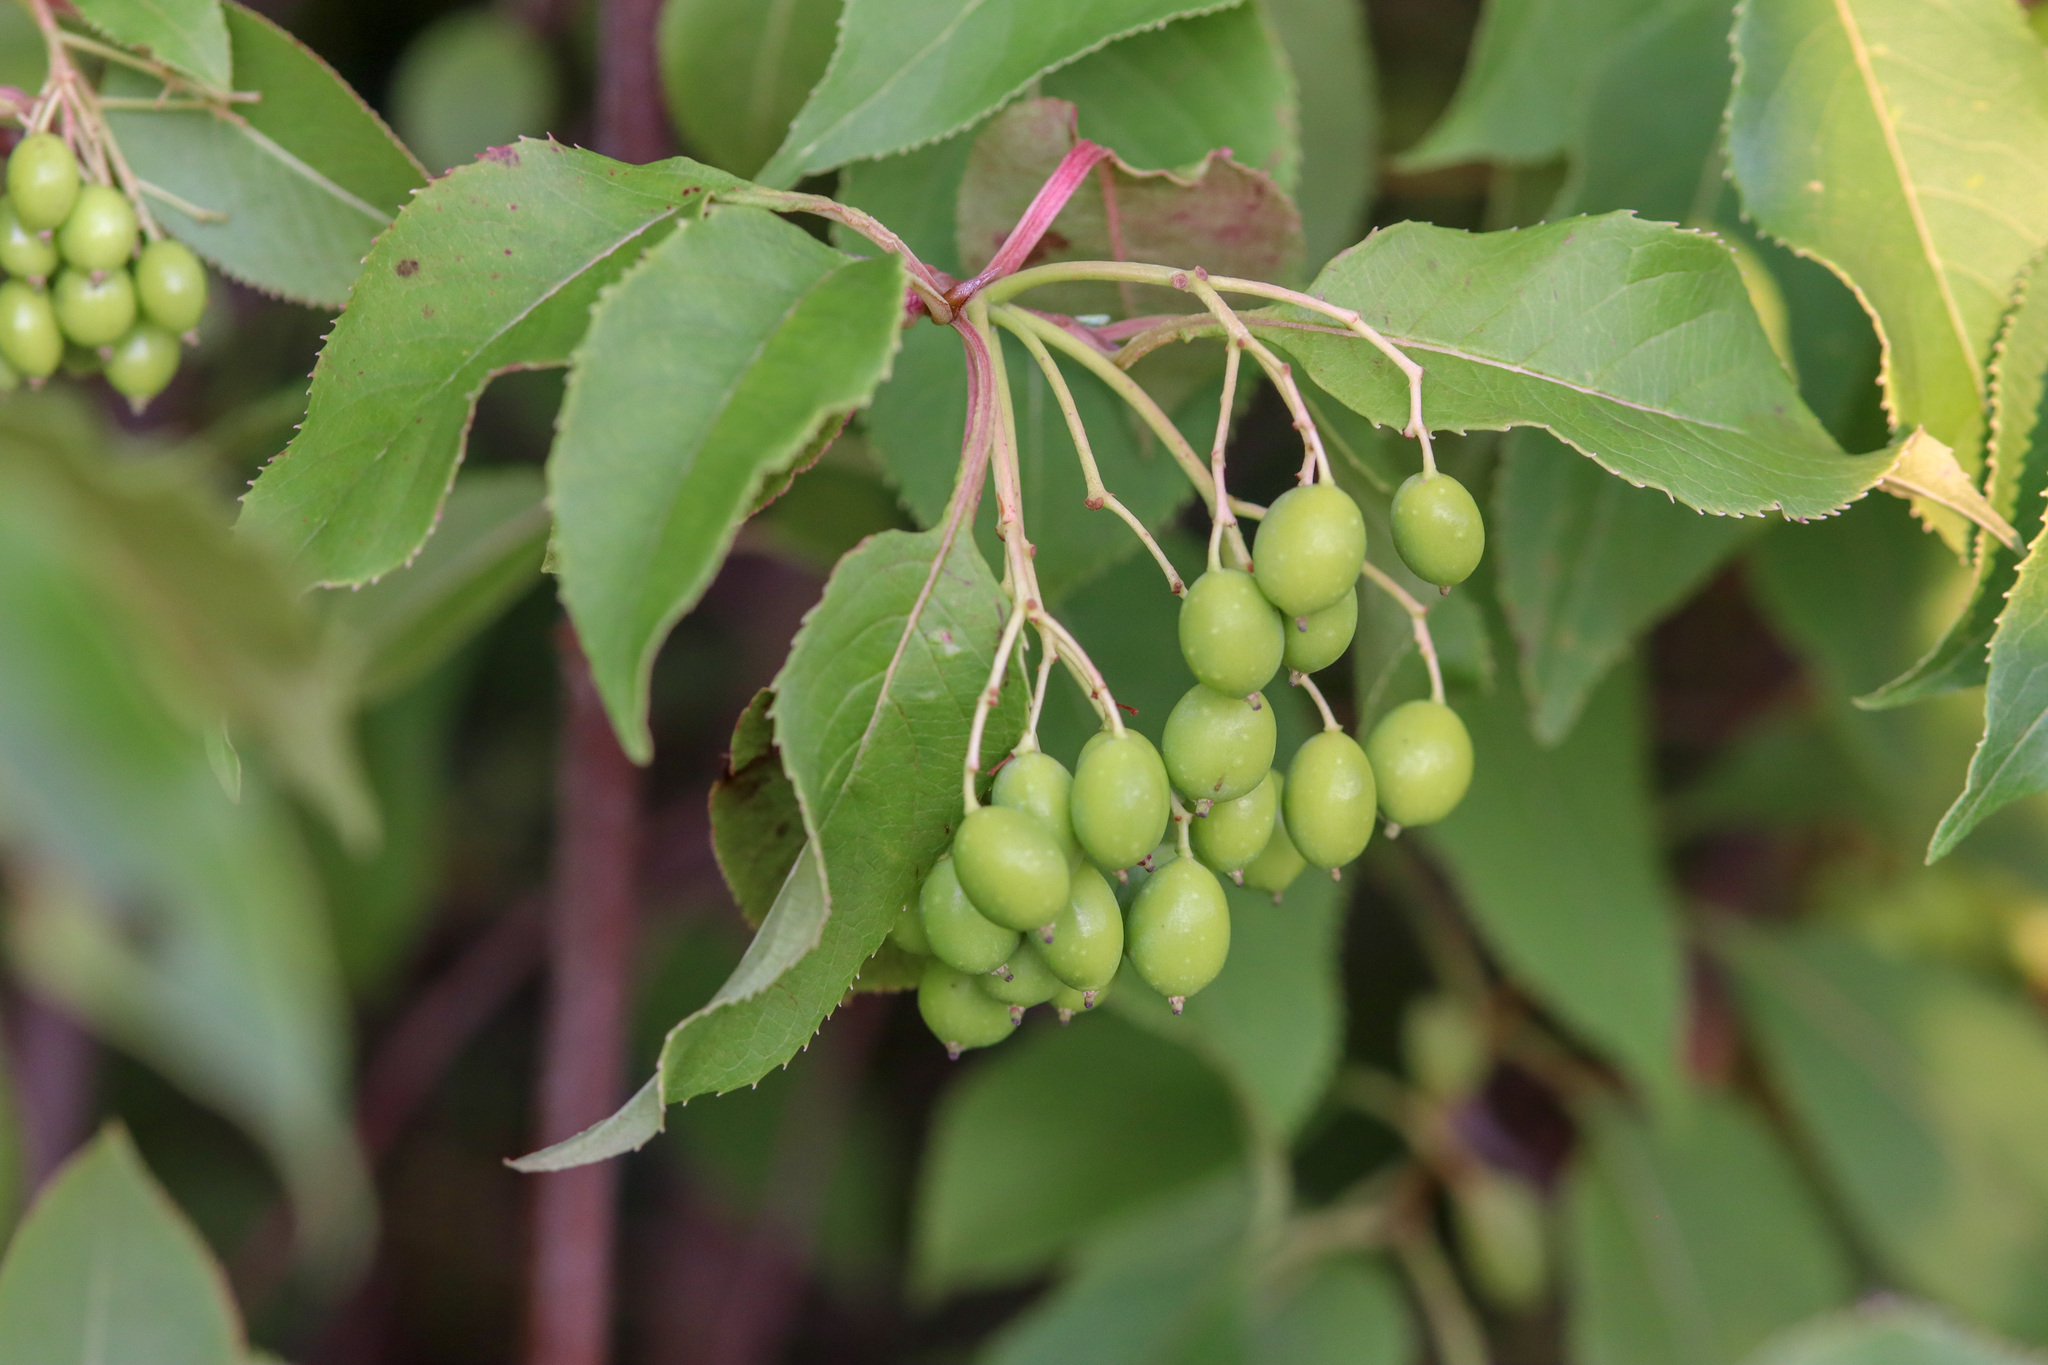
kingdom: Plantae
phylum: Tracheophyta
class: Magnoliopsida
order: Dipsacales
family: Viburnaceae
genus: Viburnum
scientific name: Viburnum lentago
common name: Black haw
